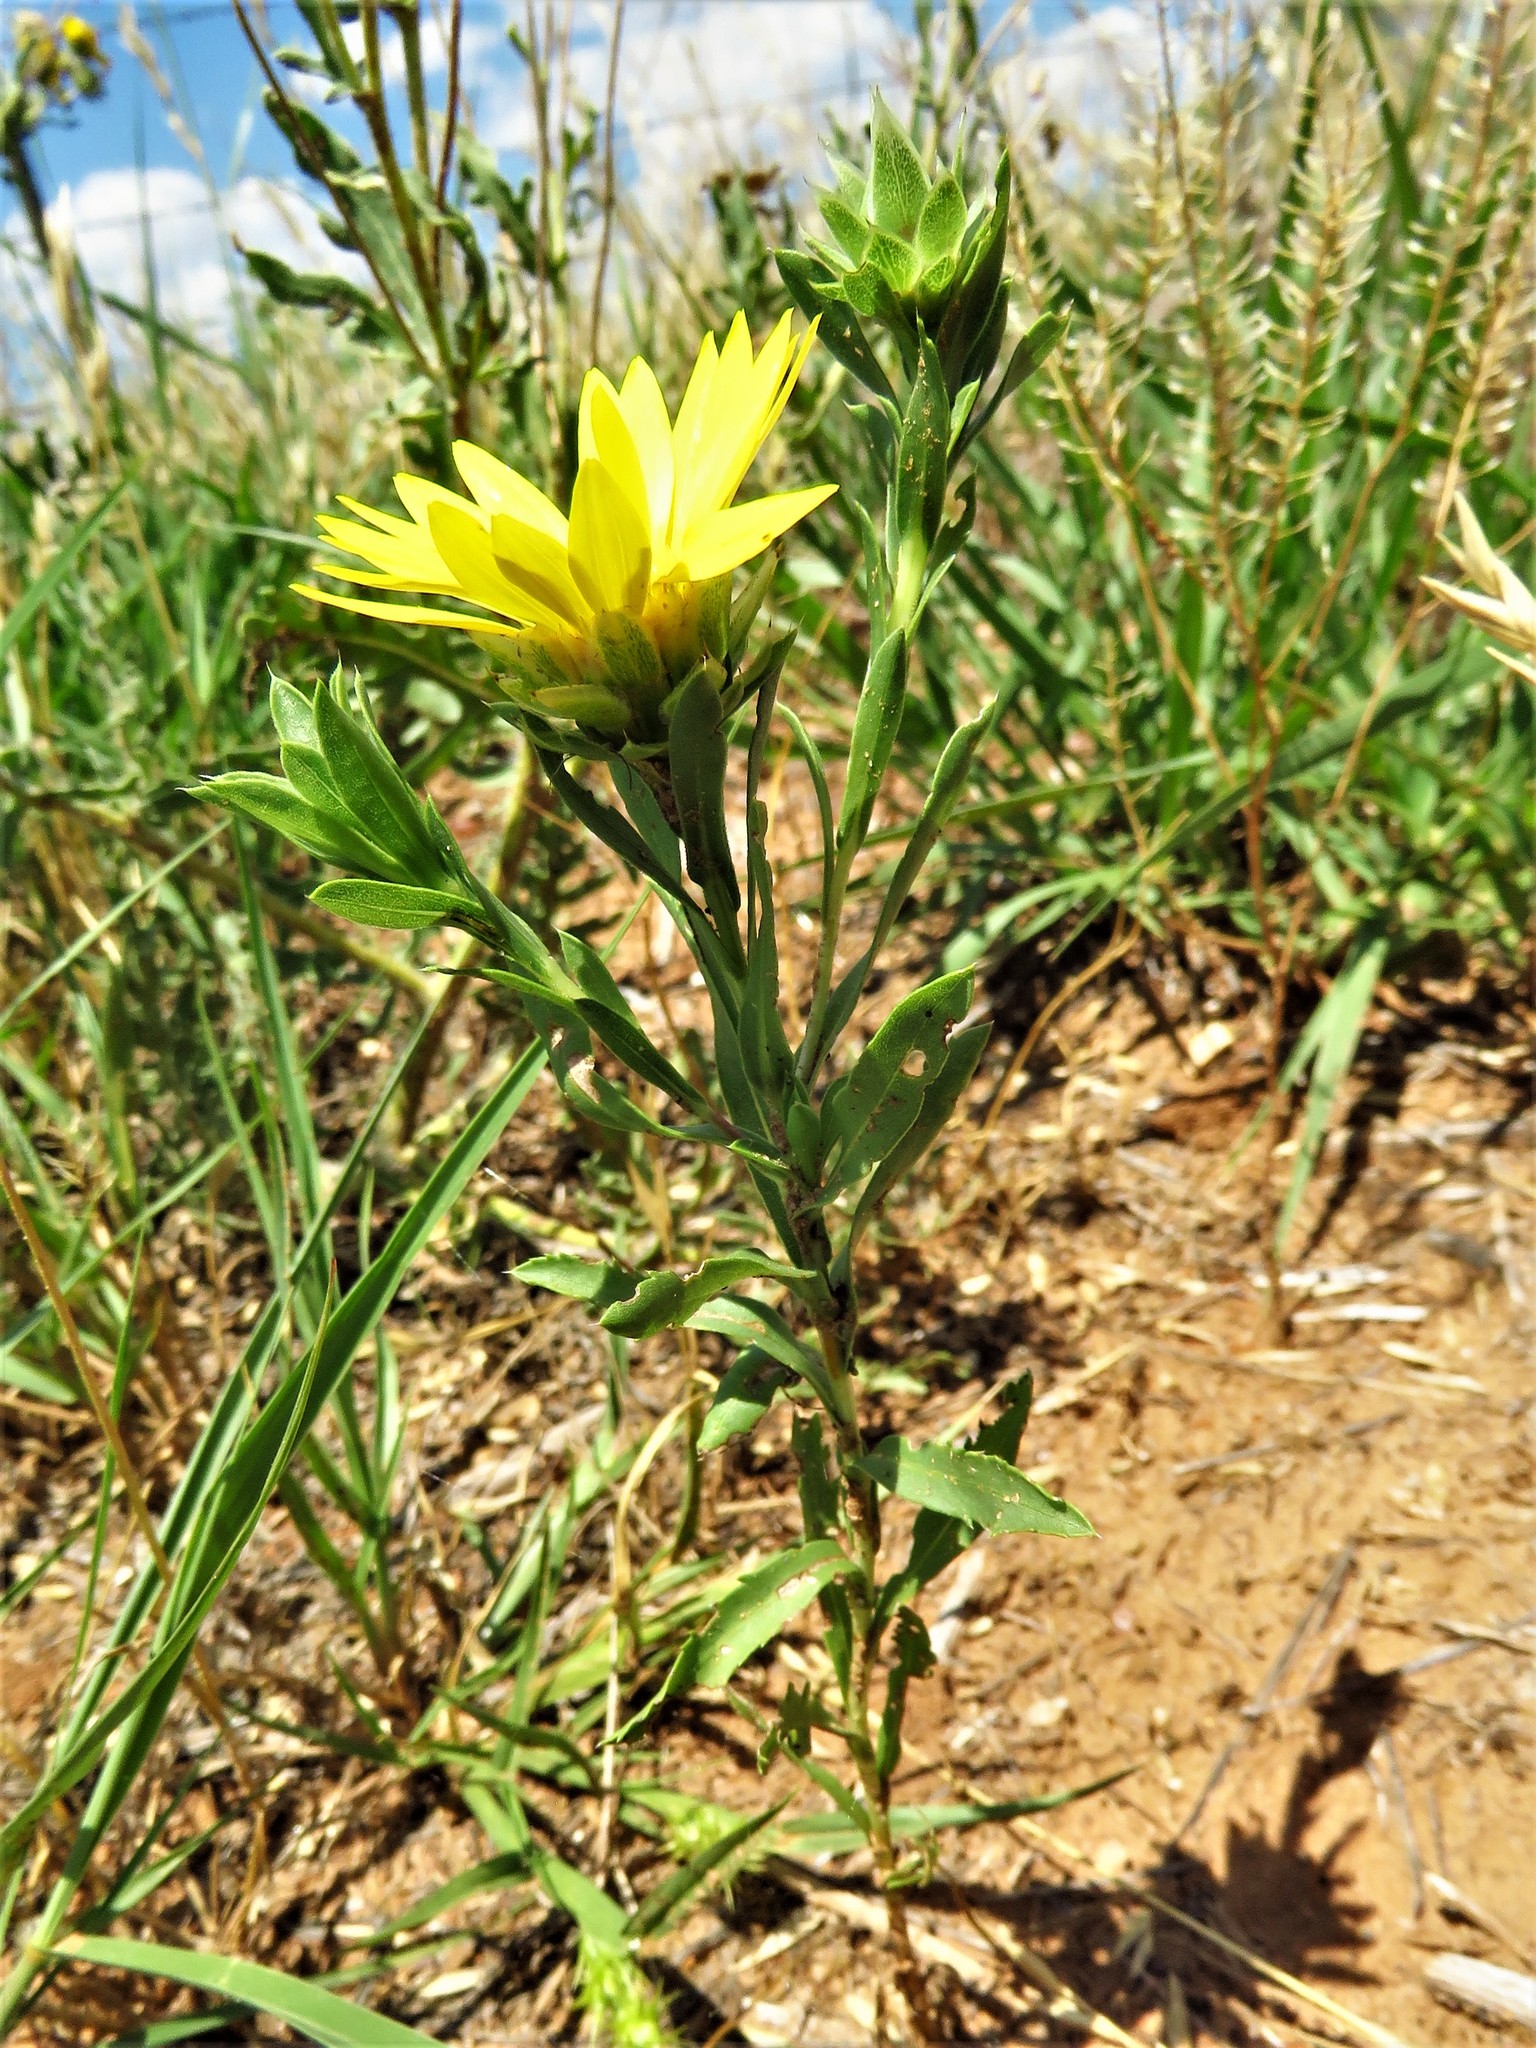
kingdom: Plantae
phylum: Tracheophyta
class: Magnoliopsida
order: Asterales
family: Asteraceae
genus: Xanthisma
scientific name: Xanthisma texanum
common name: Texas sleepy daisy
